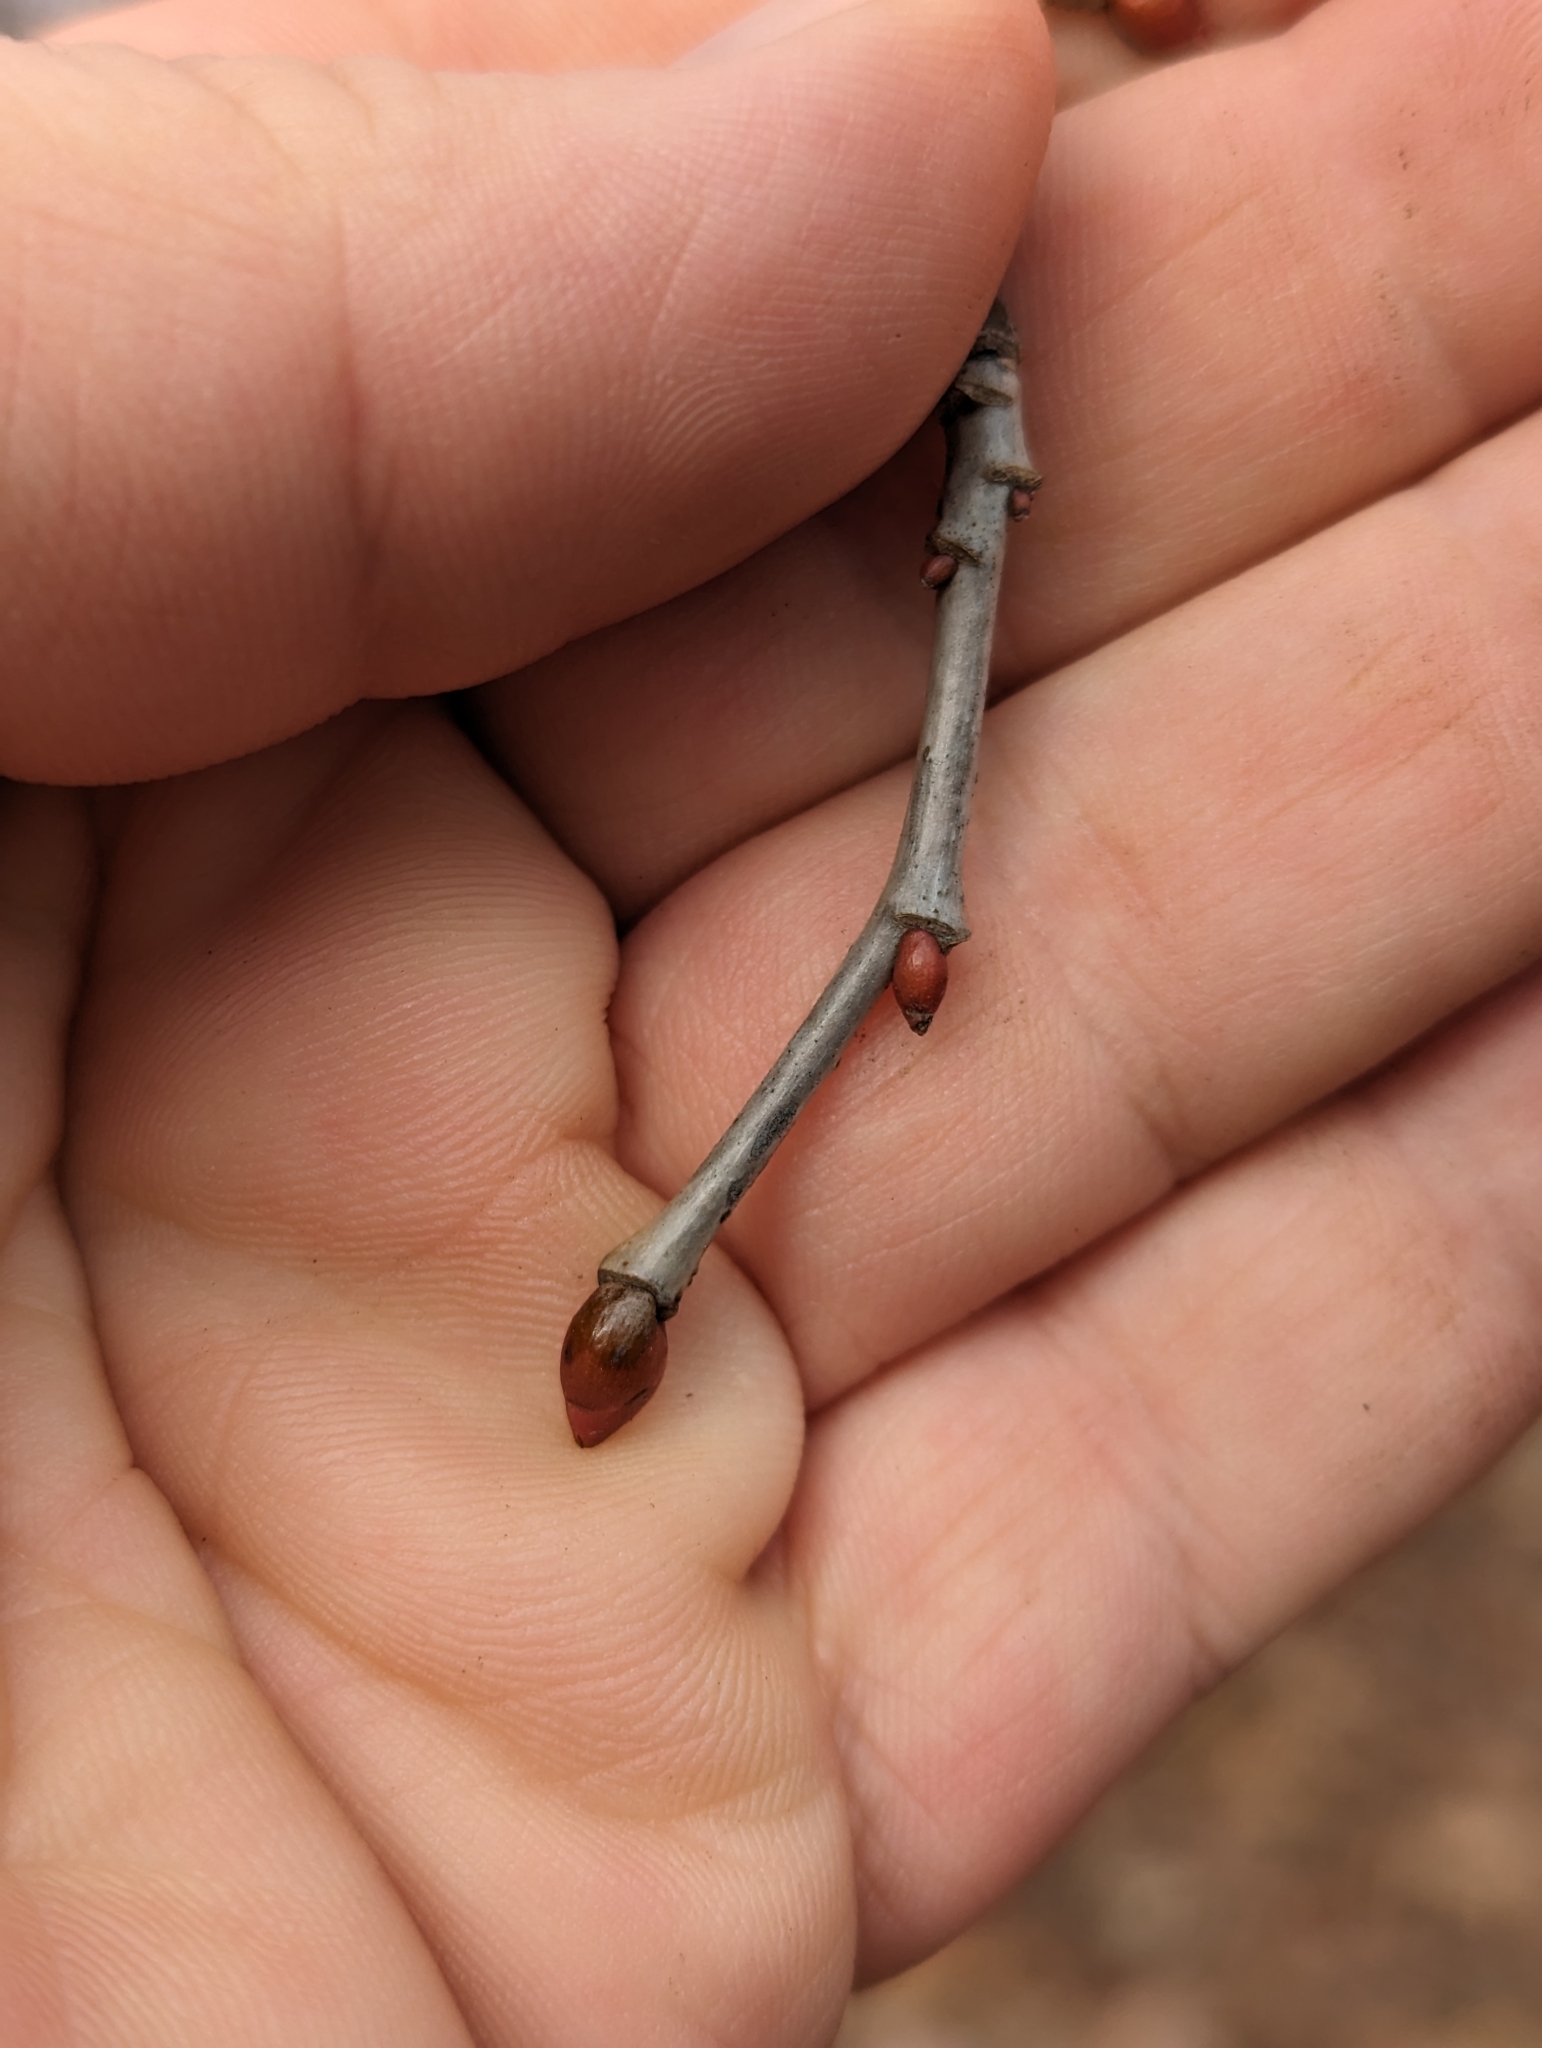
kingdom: Plantae
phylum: Tracheophyta
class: Magnoliopsida
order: Malvales
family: Malvaceae
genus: Tilia
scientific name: Tilia americana
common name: Basswood
